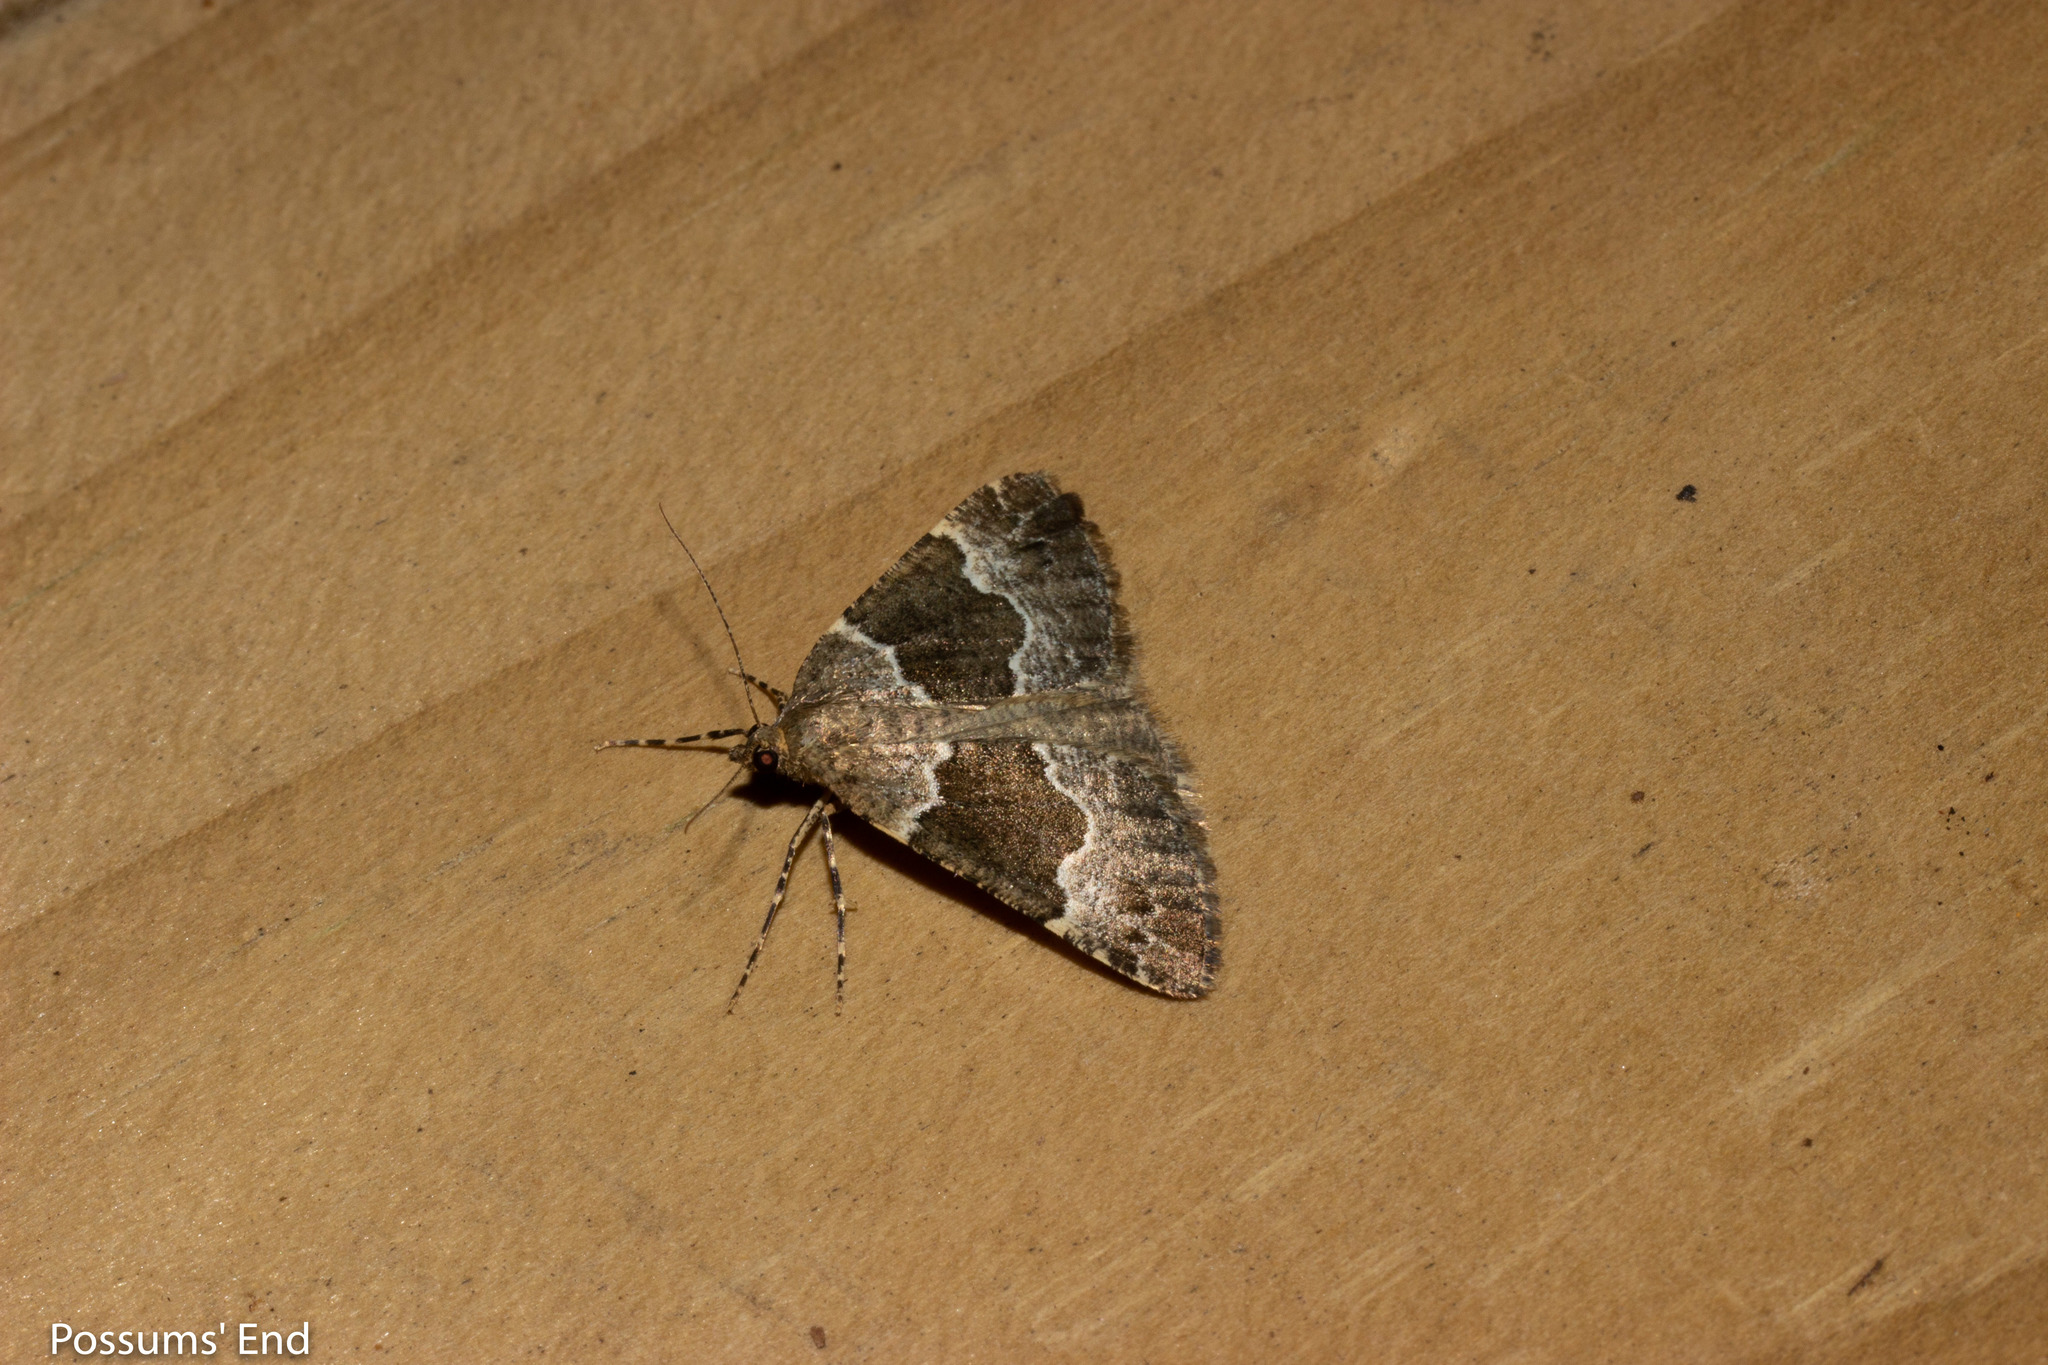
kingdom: Animalia
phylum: Arthropoda
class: Insecta
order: Lepidoptera
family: Geometridae
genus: Pseudocoremia
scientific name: Pseudocoremia
